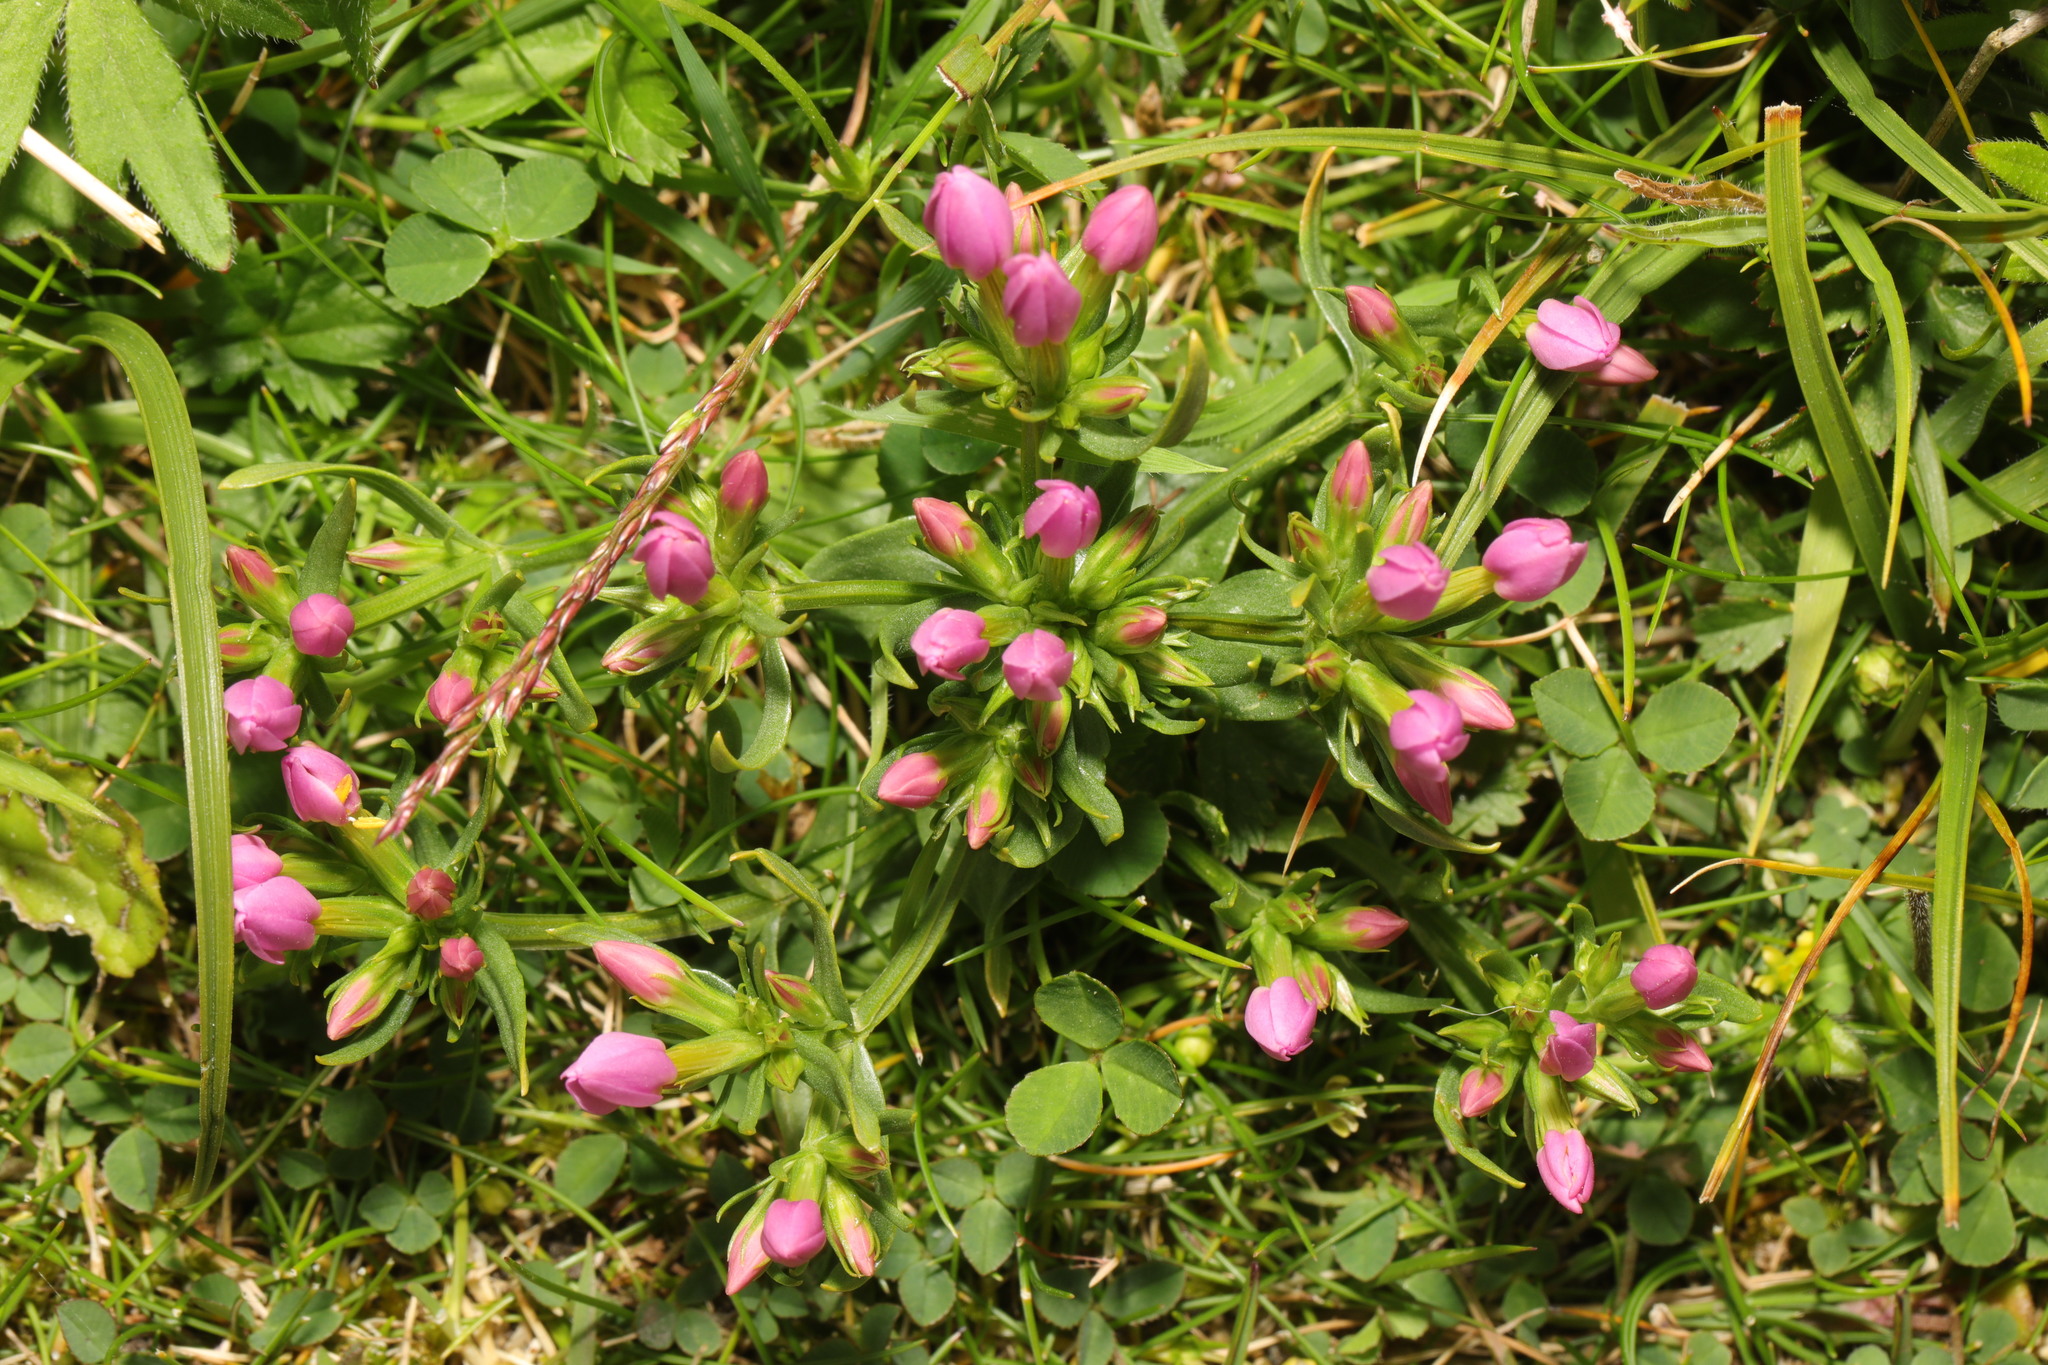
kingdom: Plantae
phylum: Tracheophyta
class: Magnoliopsida
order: Gentianales
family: Gentianaceae
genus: Centaurium
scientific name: Centaurium erythraea
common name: Common centaury
